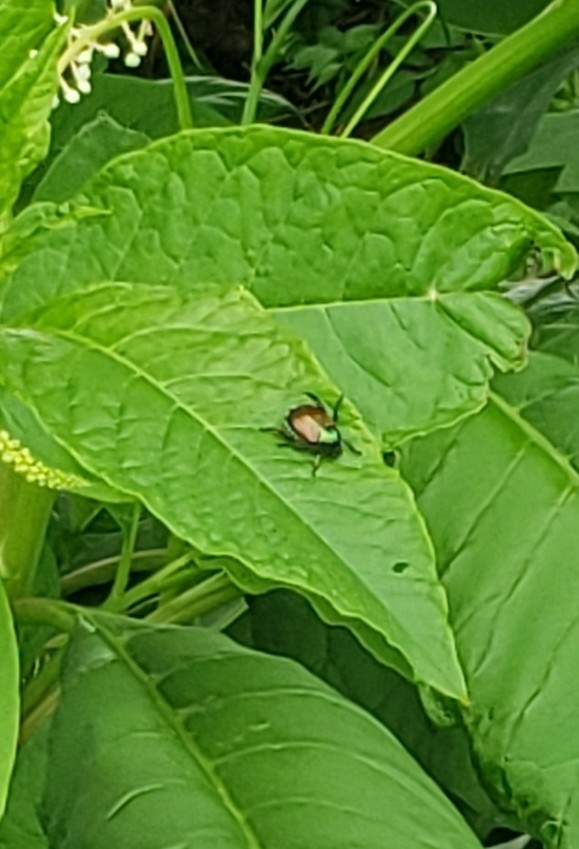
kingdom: Animalia
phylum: Arthropoda
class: Insecta
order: Coleoptera
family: Scarabaeidae
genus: Popillia
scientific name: Popillia japonica
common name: Japanese beetle
